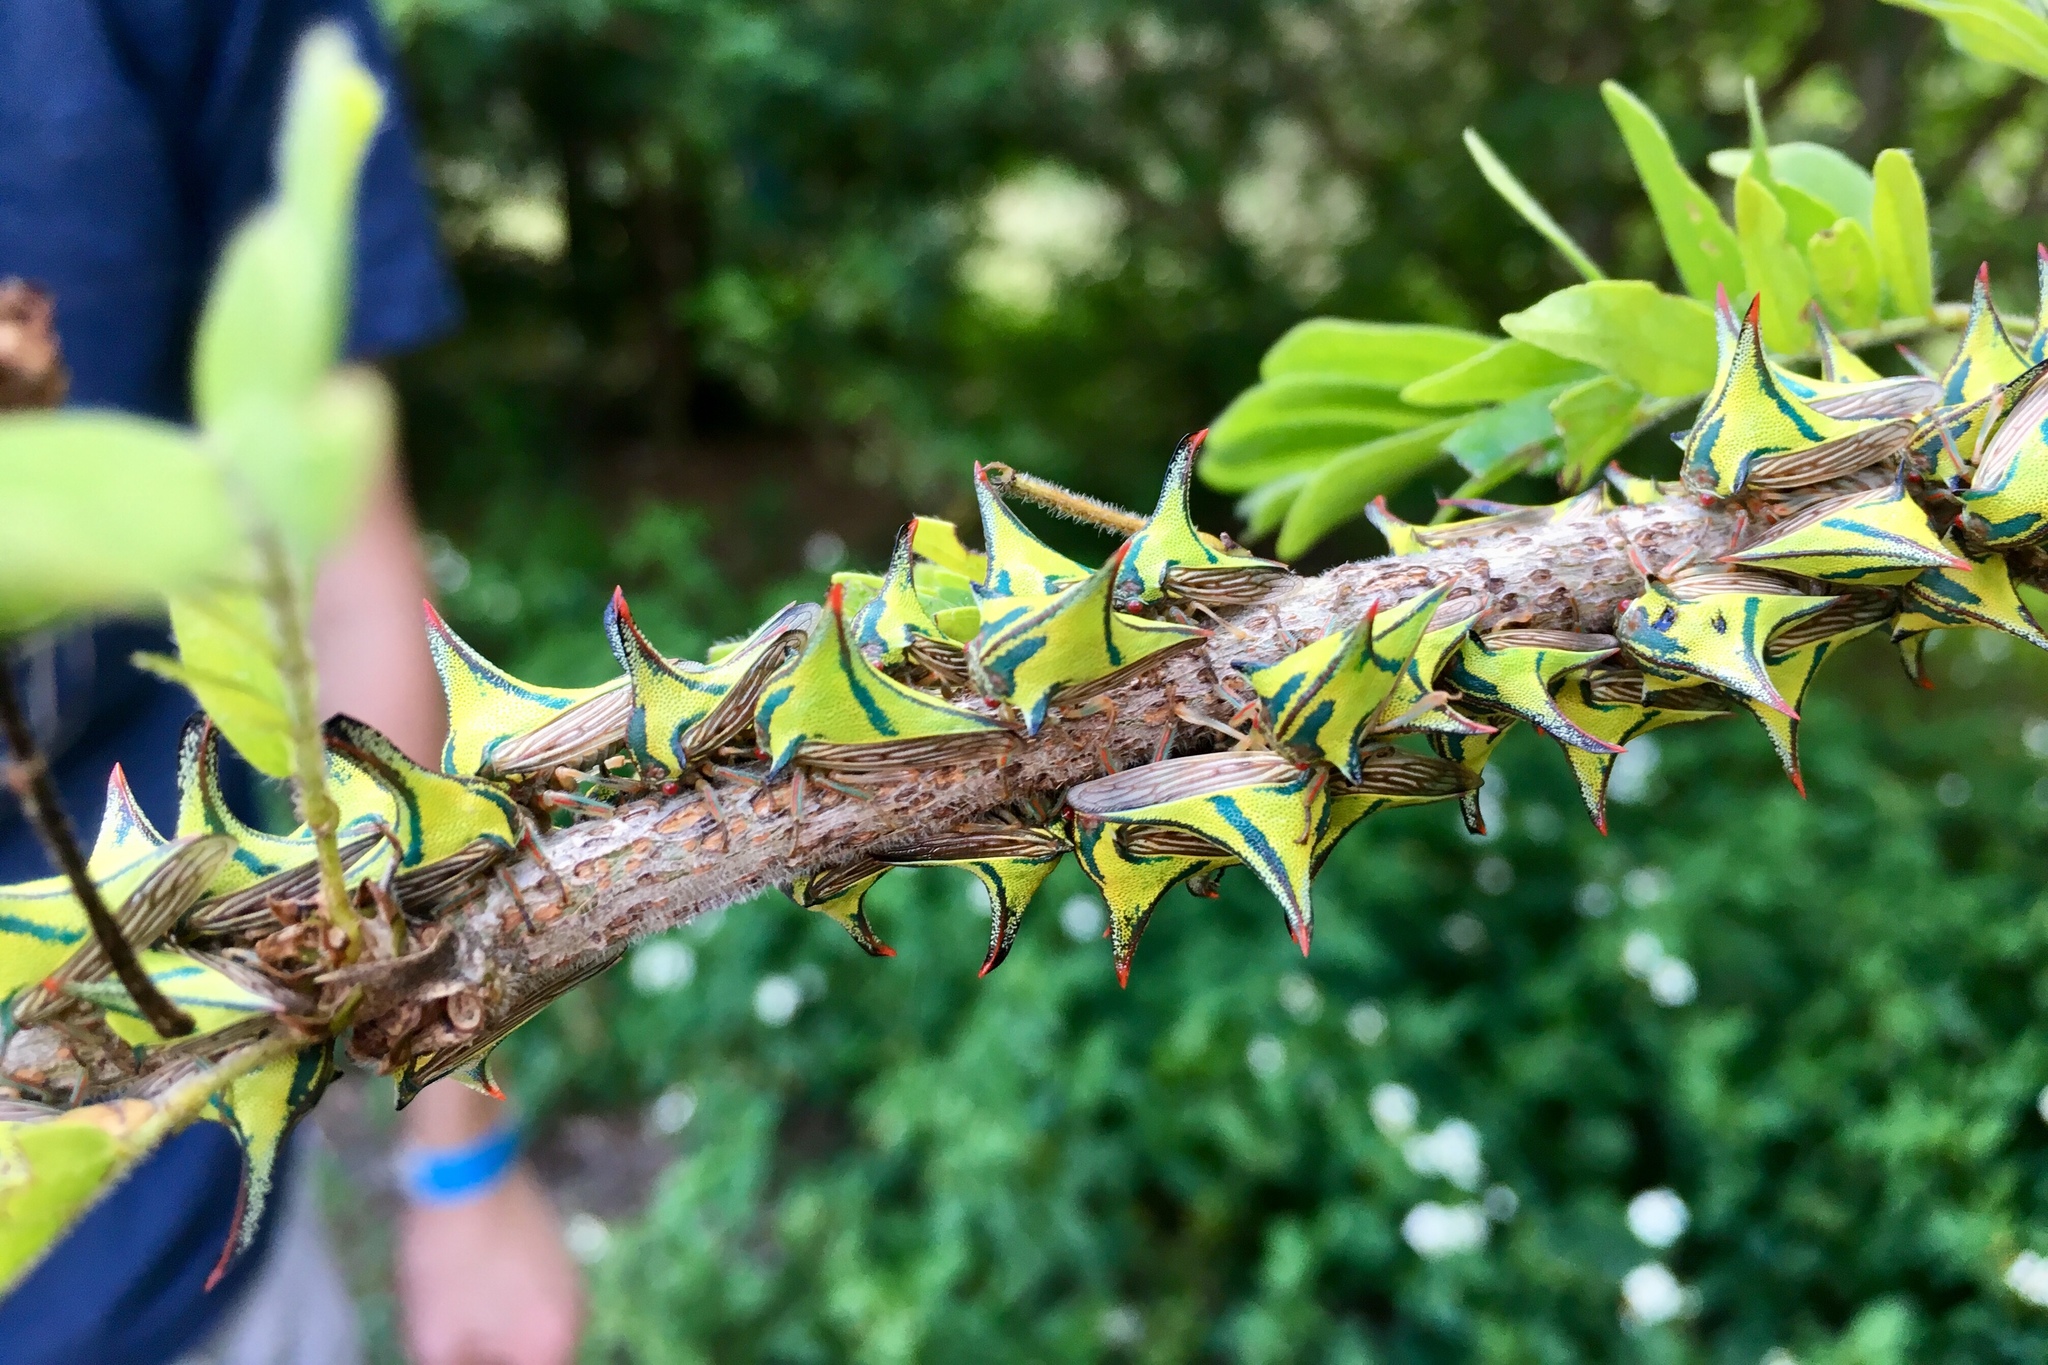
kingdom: Animalia
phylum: Arthropoda
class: Insecta
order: Hemiptera
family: Membracidae
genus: Umbonia
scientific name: Umbonia crassicornis
